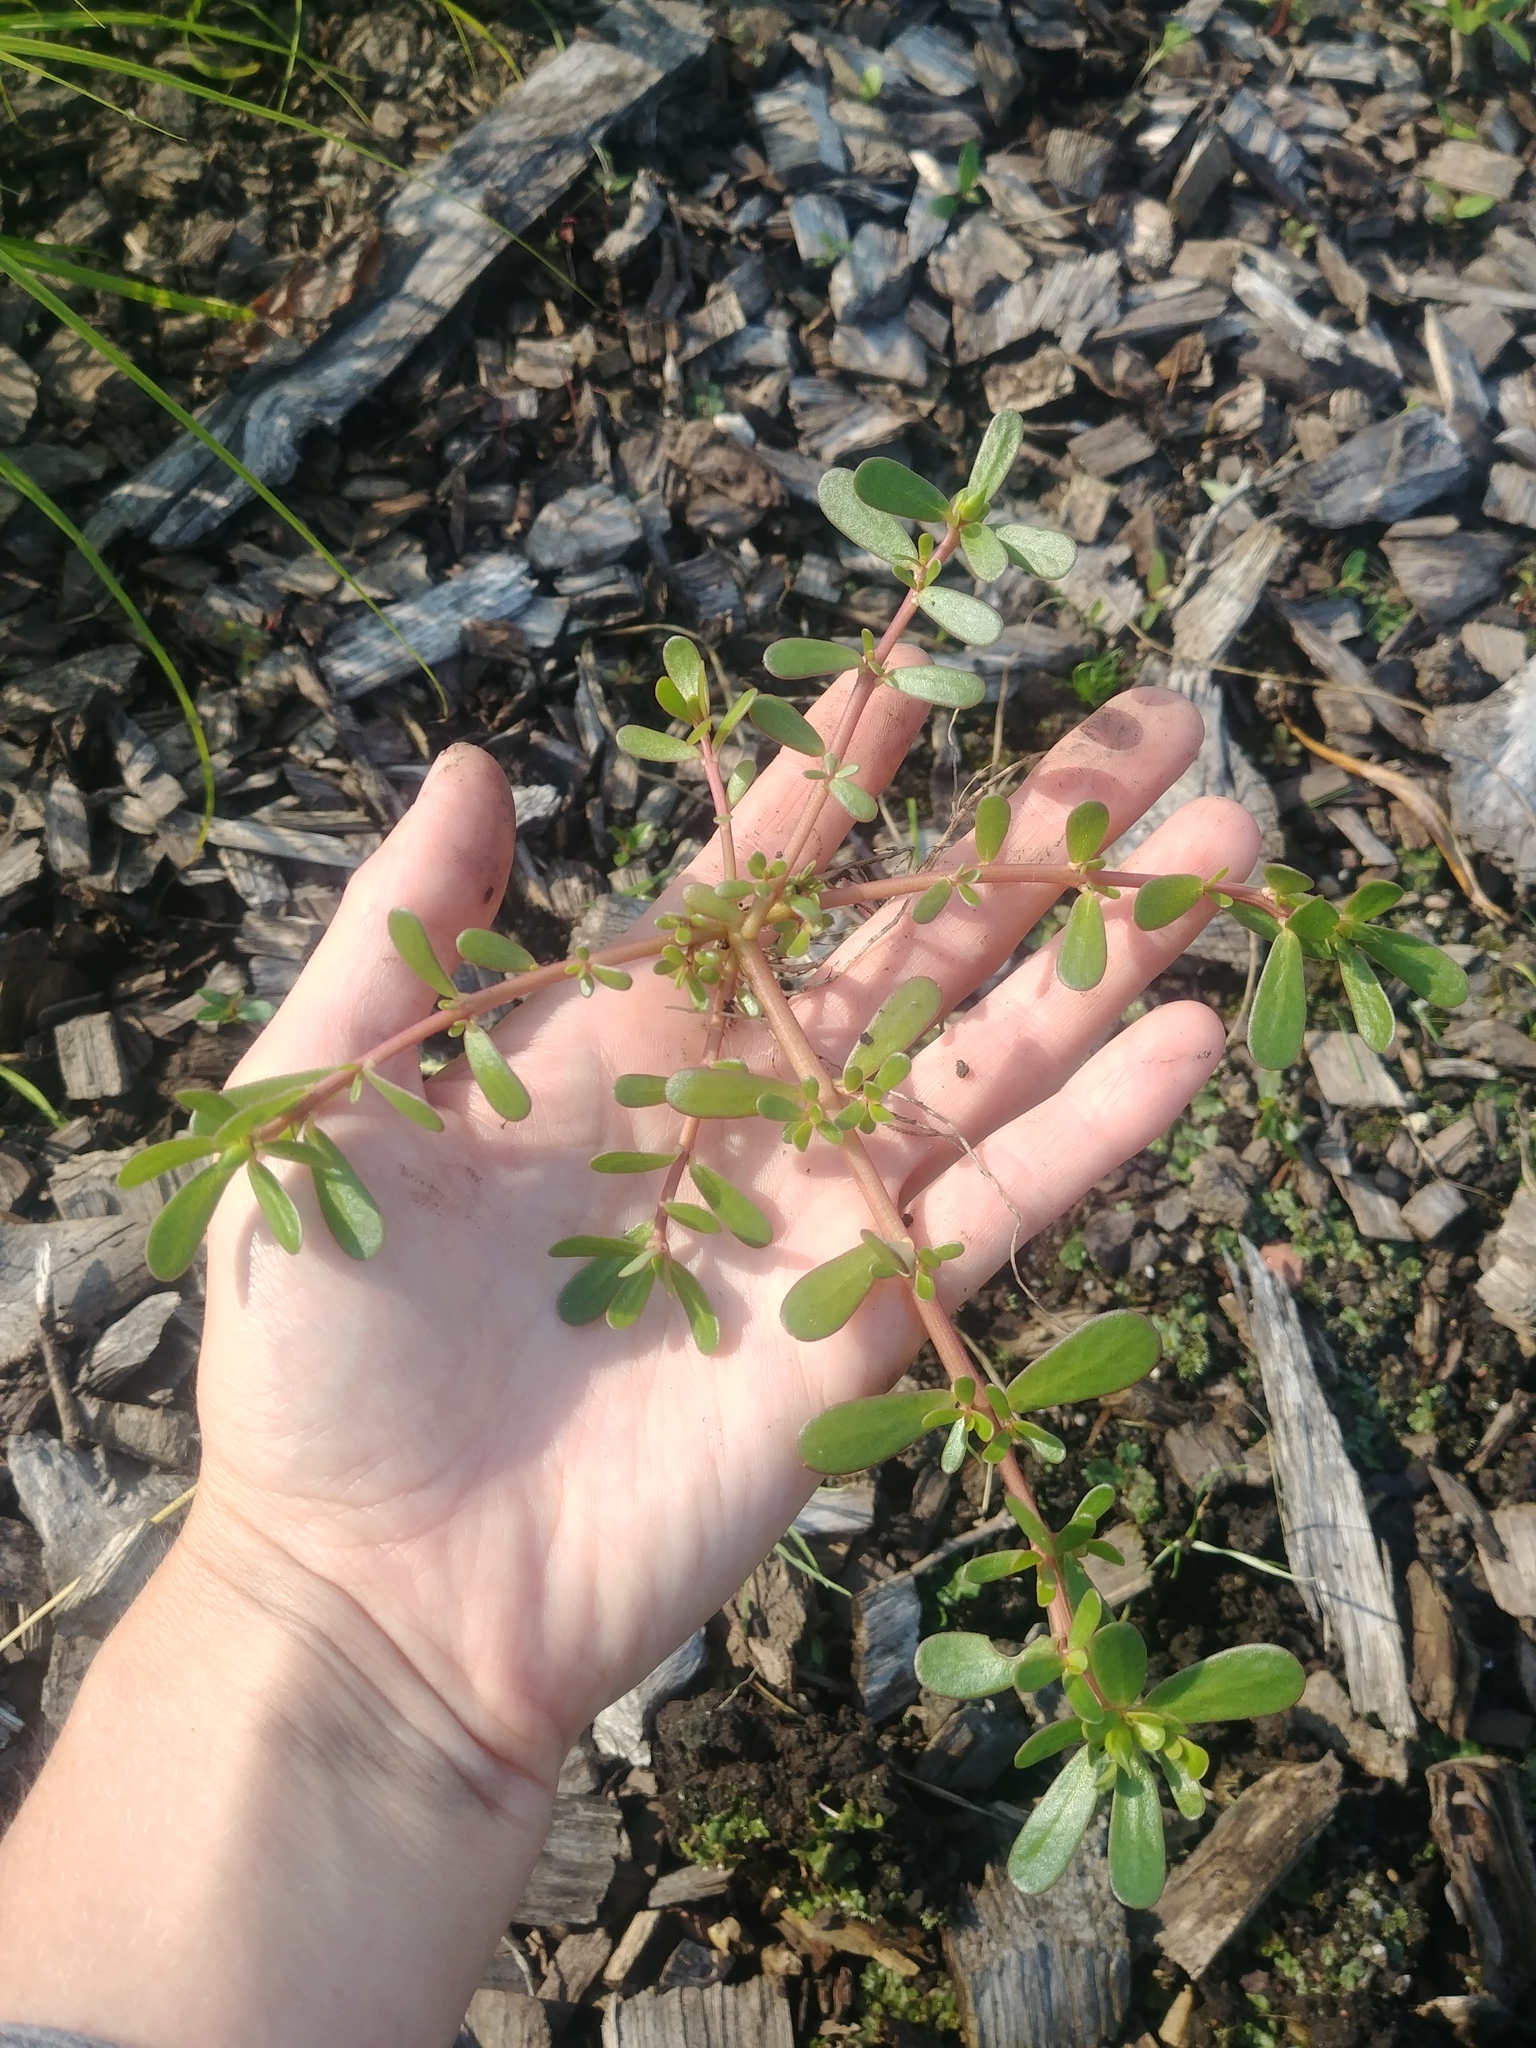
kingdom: Plantae
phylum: Tracheophyta
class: Magnoliopsida
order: Caryophyllales
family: Portulacaceae
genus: Portulaca
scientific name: Portulaca oleracea
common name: Common purslane
